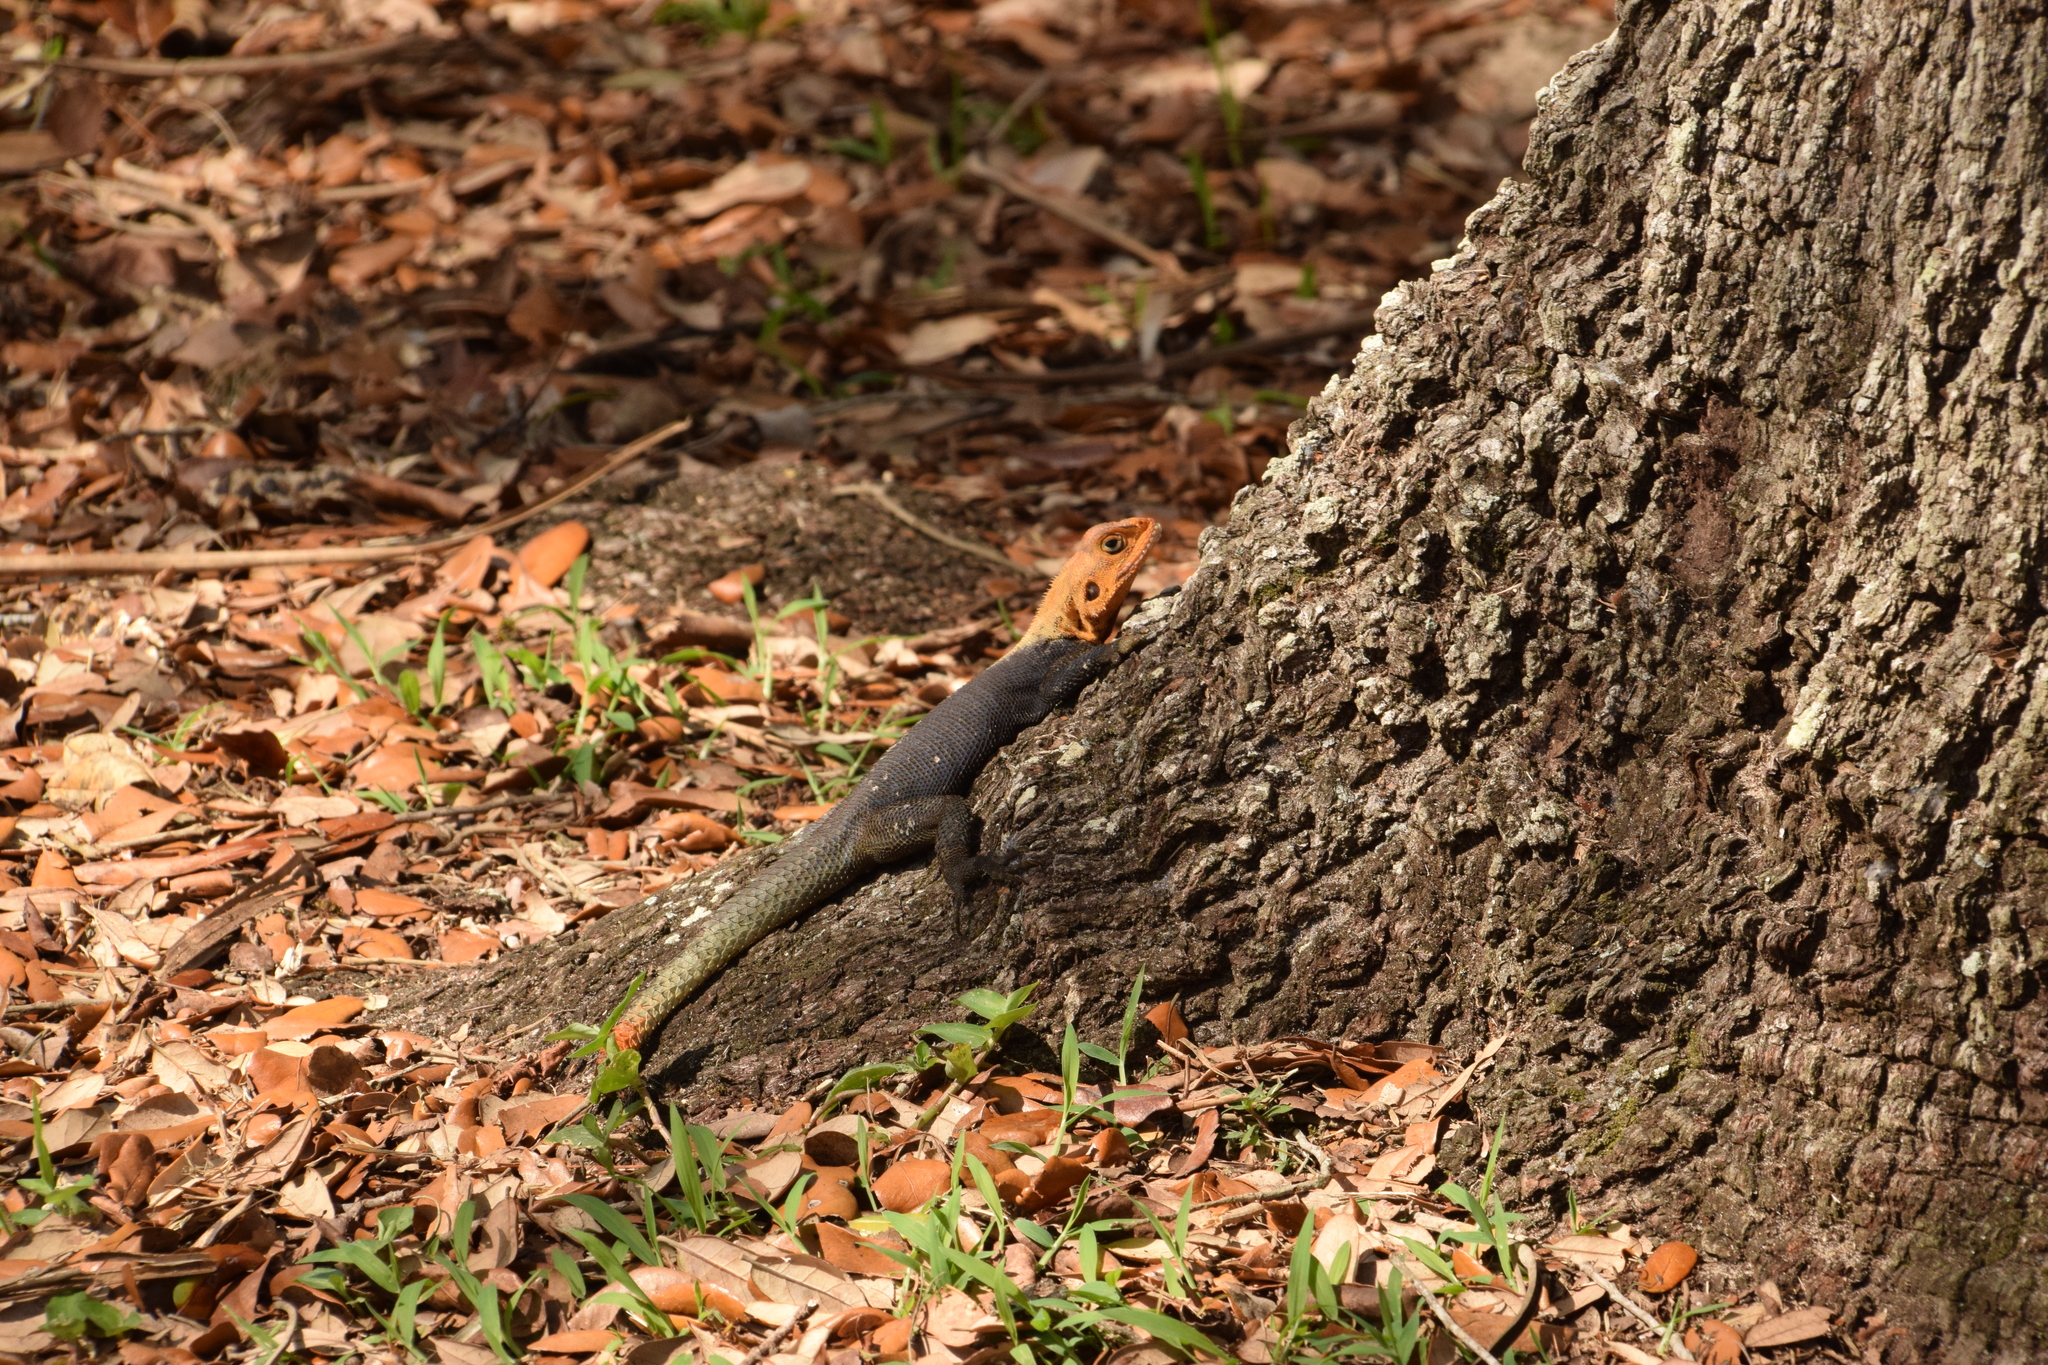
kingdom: Animalia
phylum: Chordata
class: Squamata
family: Agamidae
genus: Agama
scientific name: Agama picticauda
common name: Red-headed agama
